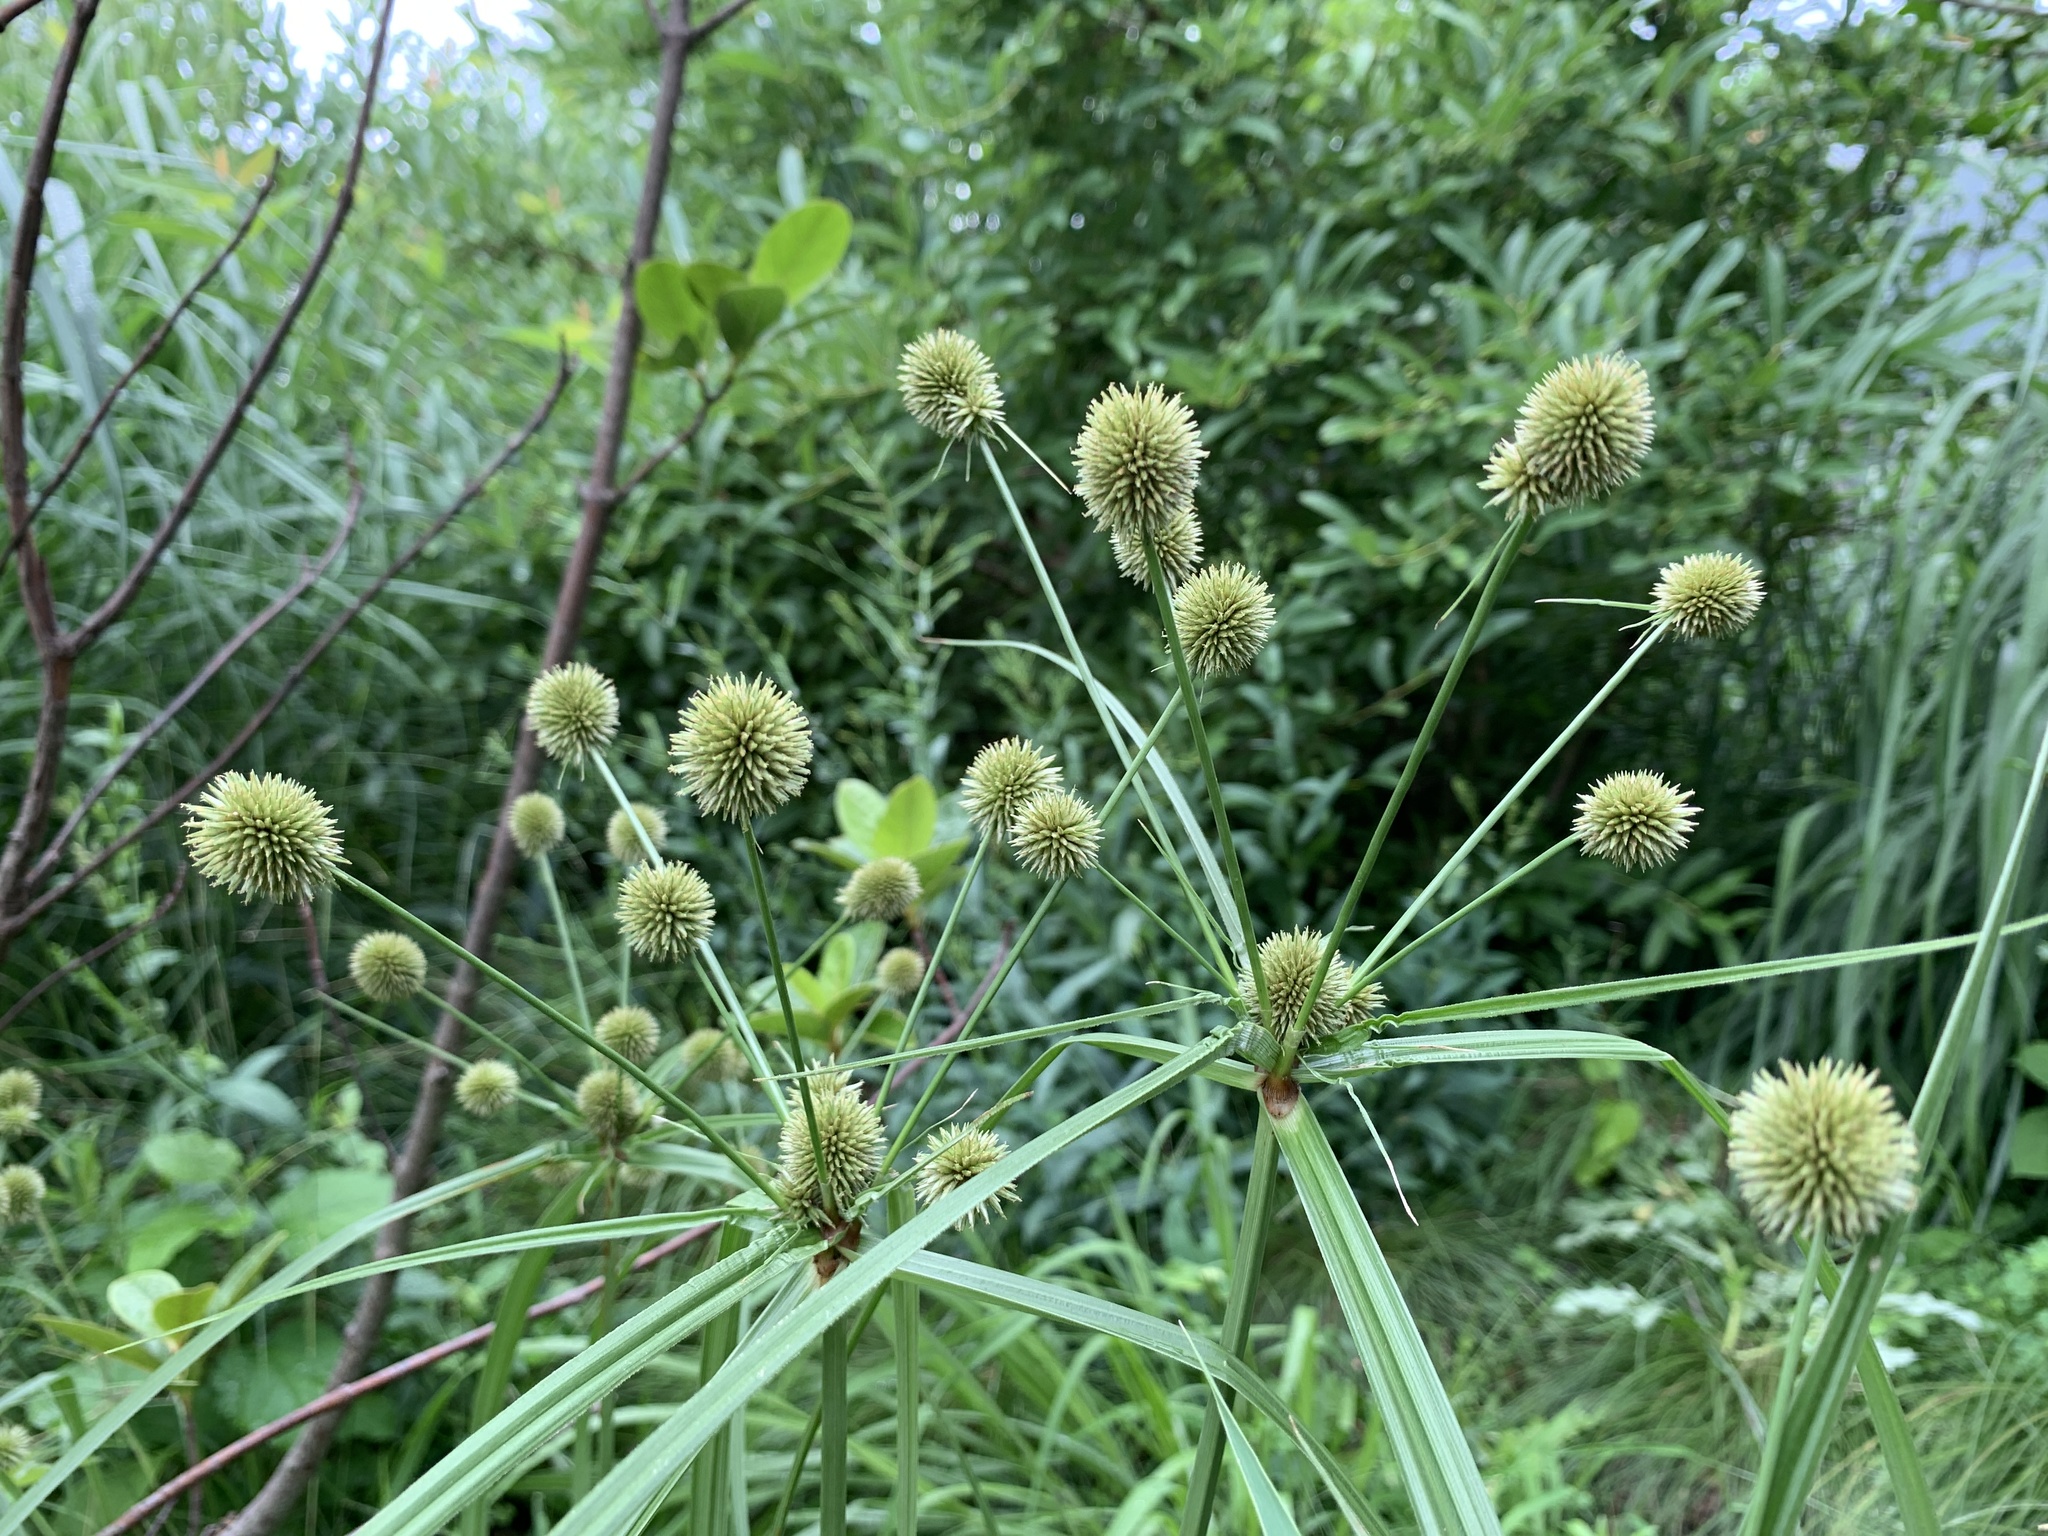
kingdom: Plantae
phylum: Tracheophyta
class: Liliopsida
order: Poales
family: Cyperaceae
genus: Cyperus
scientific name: Cyperus echinatus
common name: Teasel sedge
